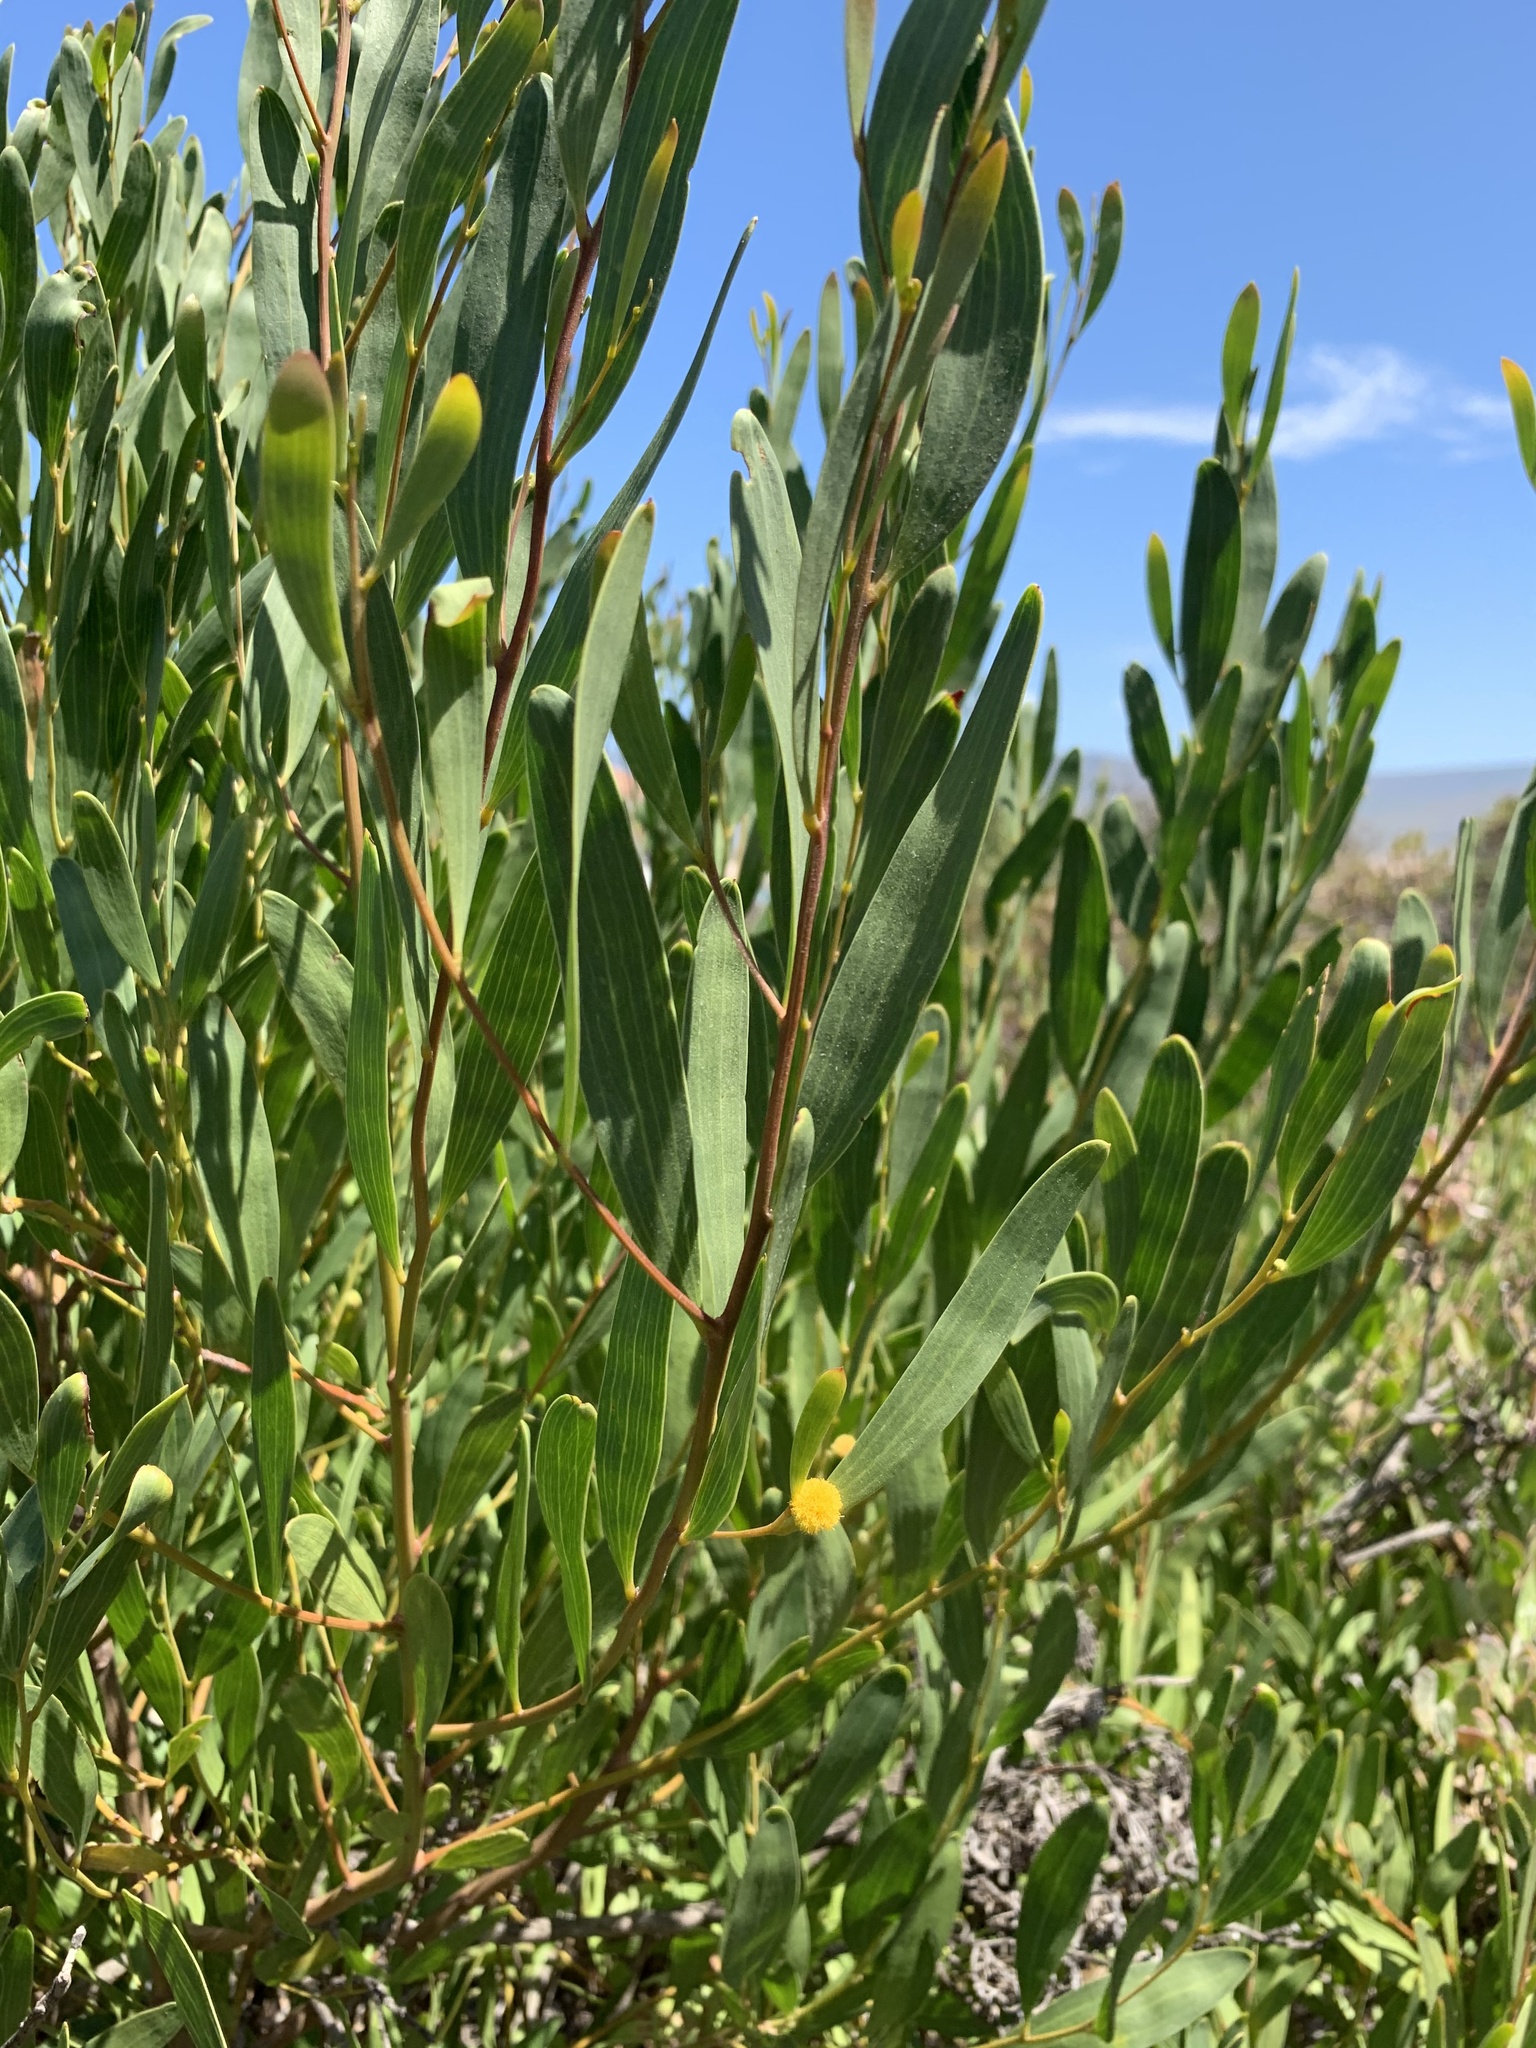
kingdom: Plantae
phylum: Tracheophyta
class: Magnoliopsida
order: Fabales
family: Fabaceae
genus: Acacia
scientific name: Acacia cyclops
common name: Coastal wattle
